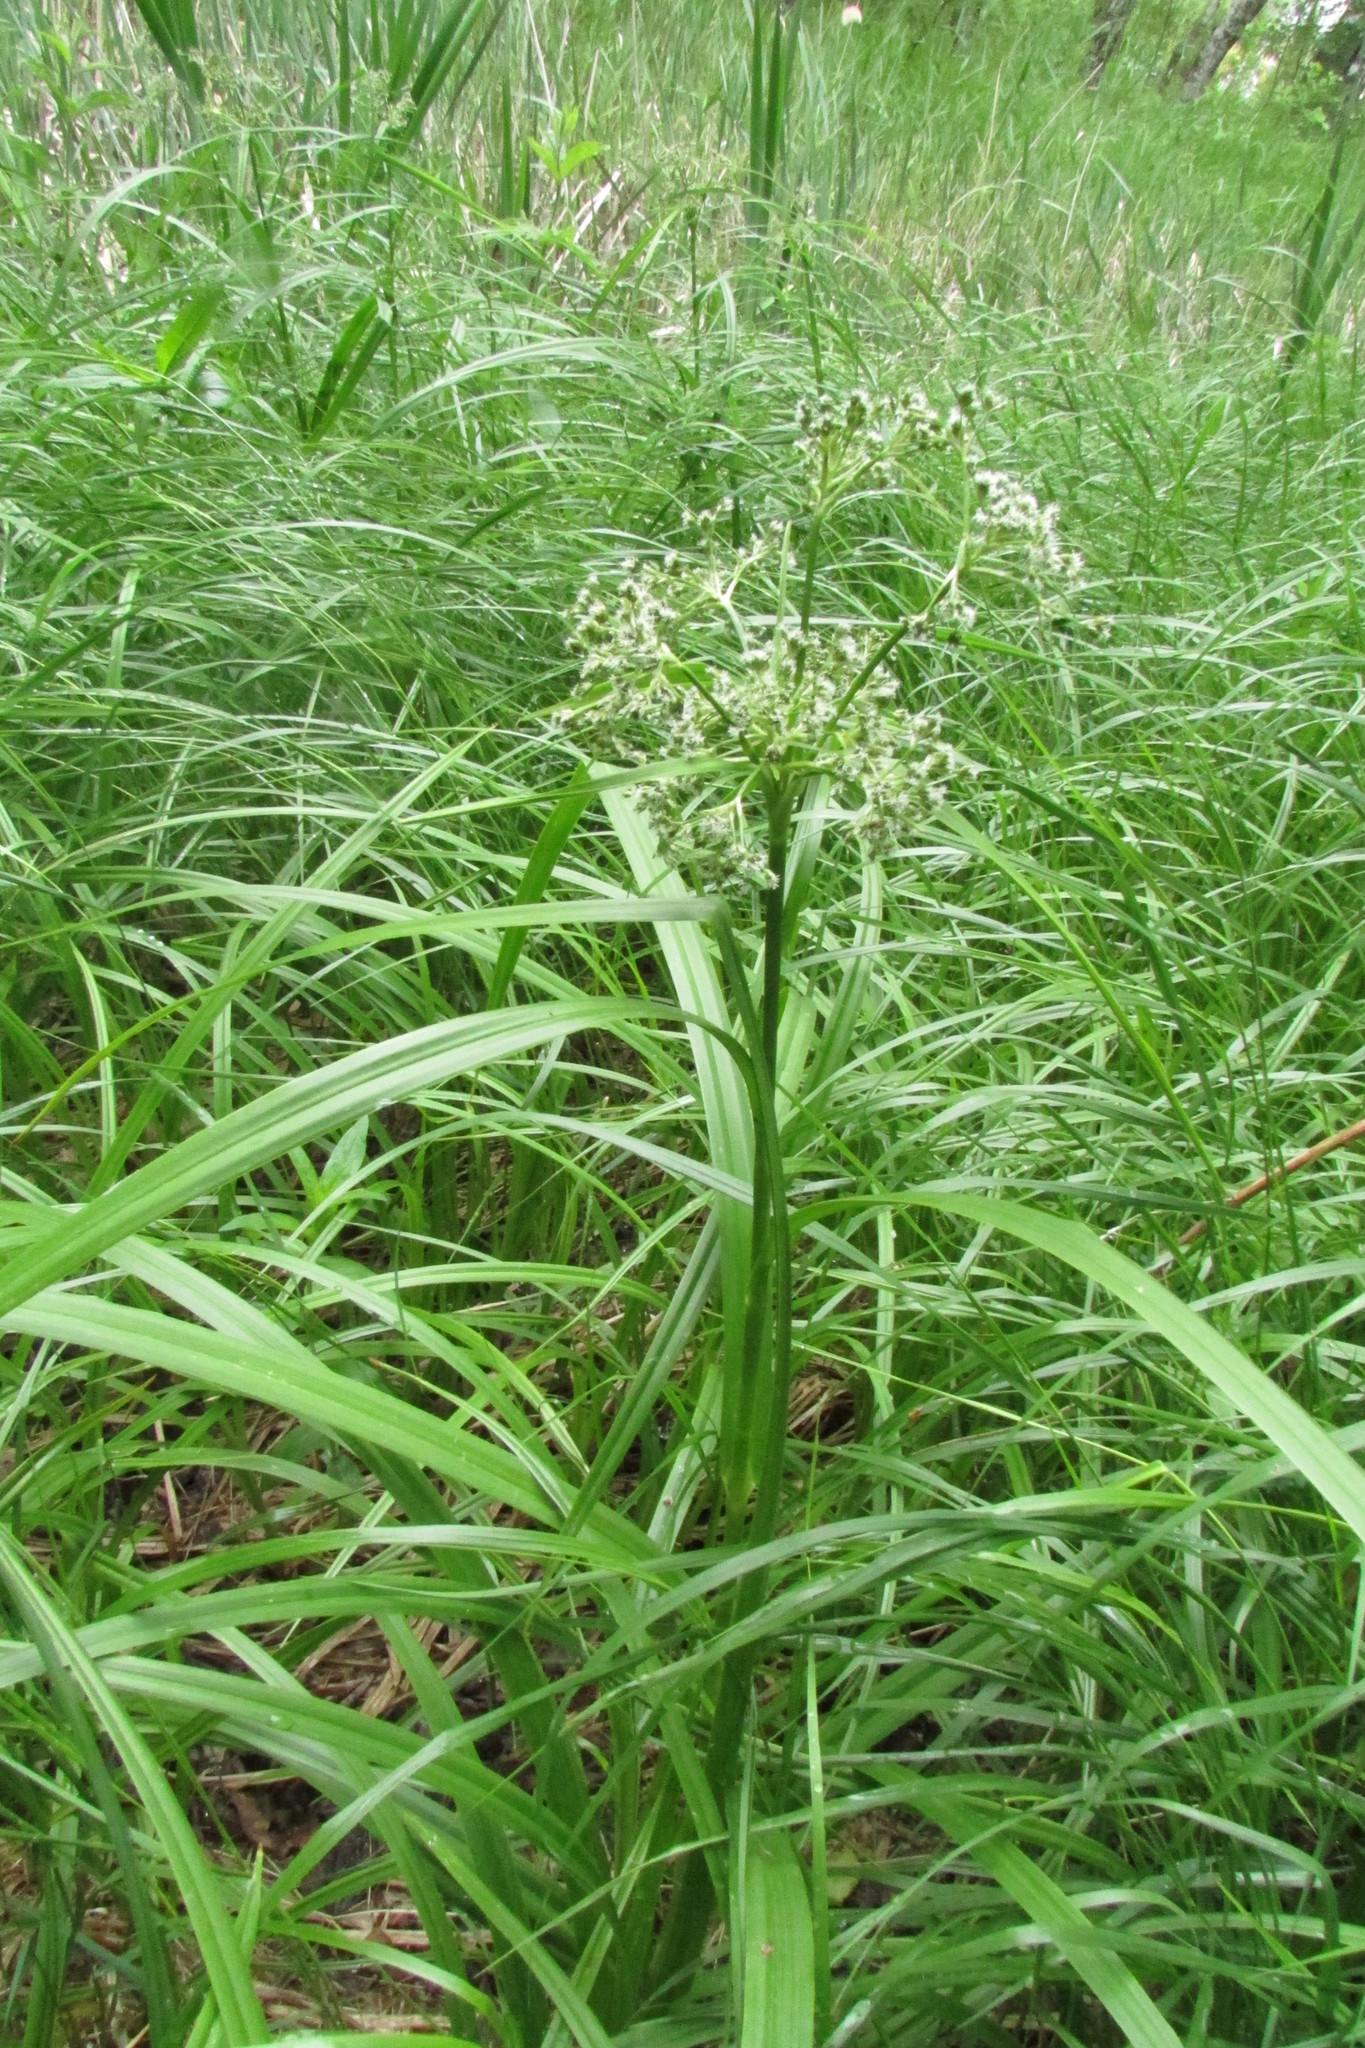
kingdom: Plantae
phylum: Tracheophyta
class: Liliopsida
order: Poales
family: Cyperaceae
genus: Scirpus
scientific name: Scirpus sylvaticus
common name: Wood club-rush
